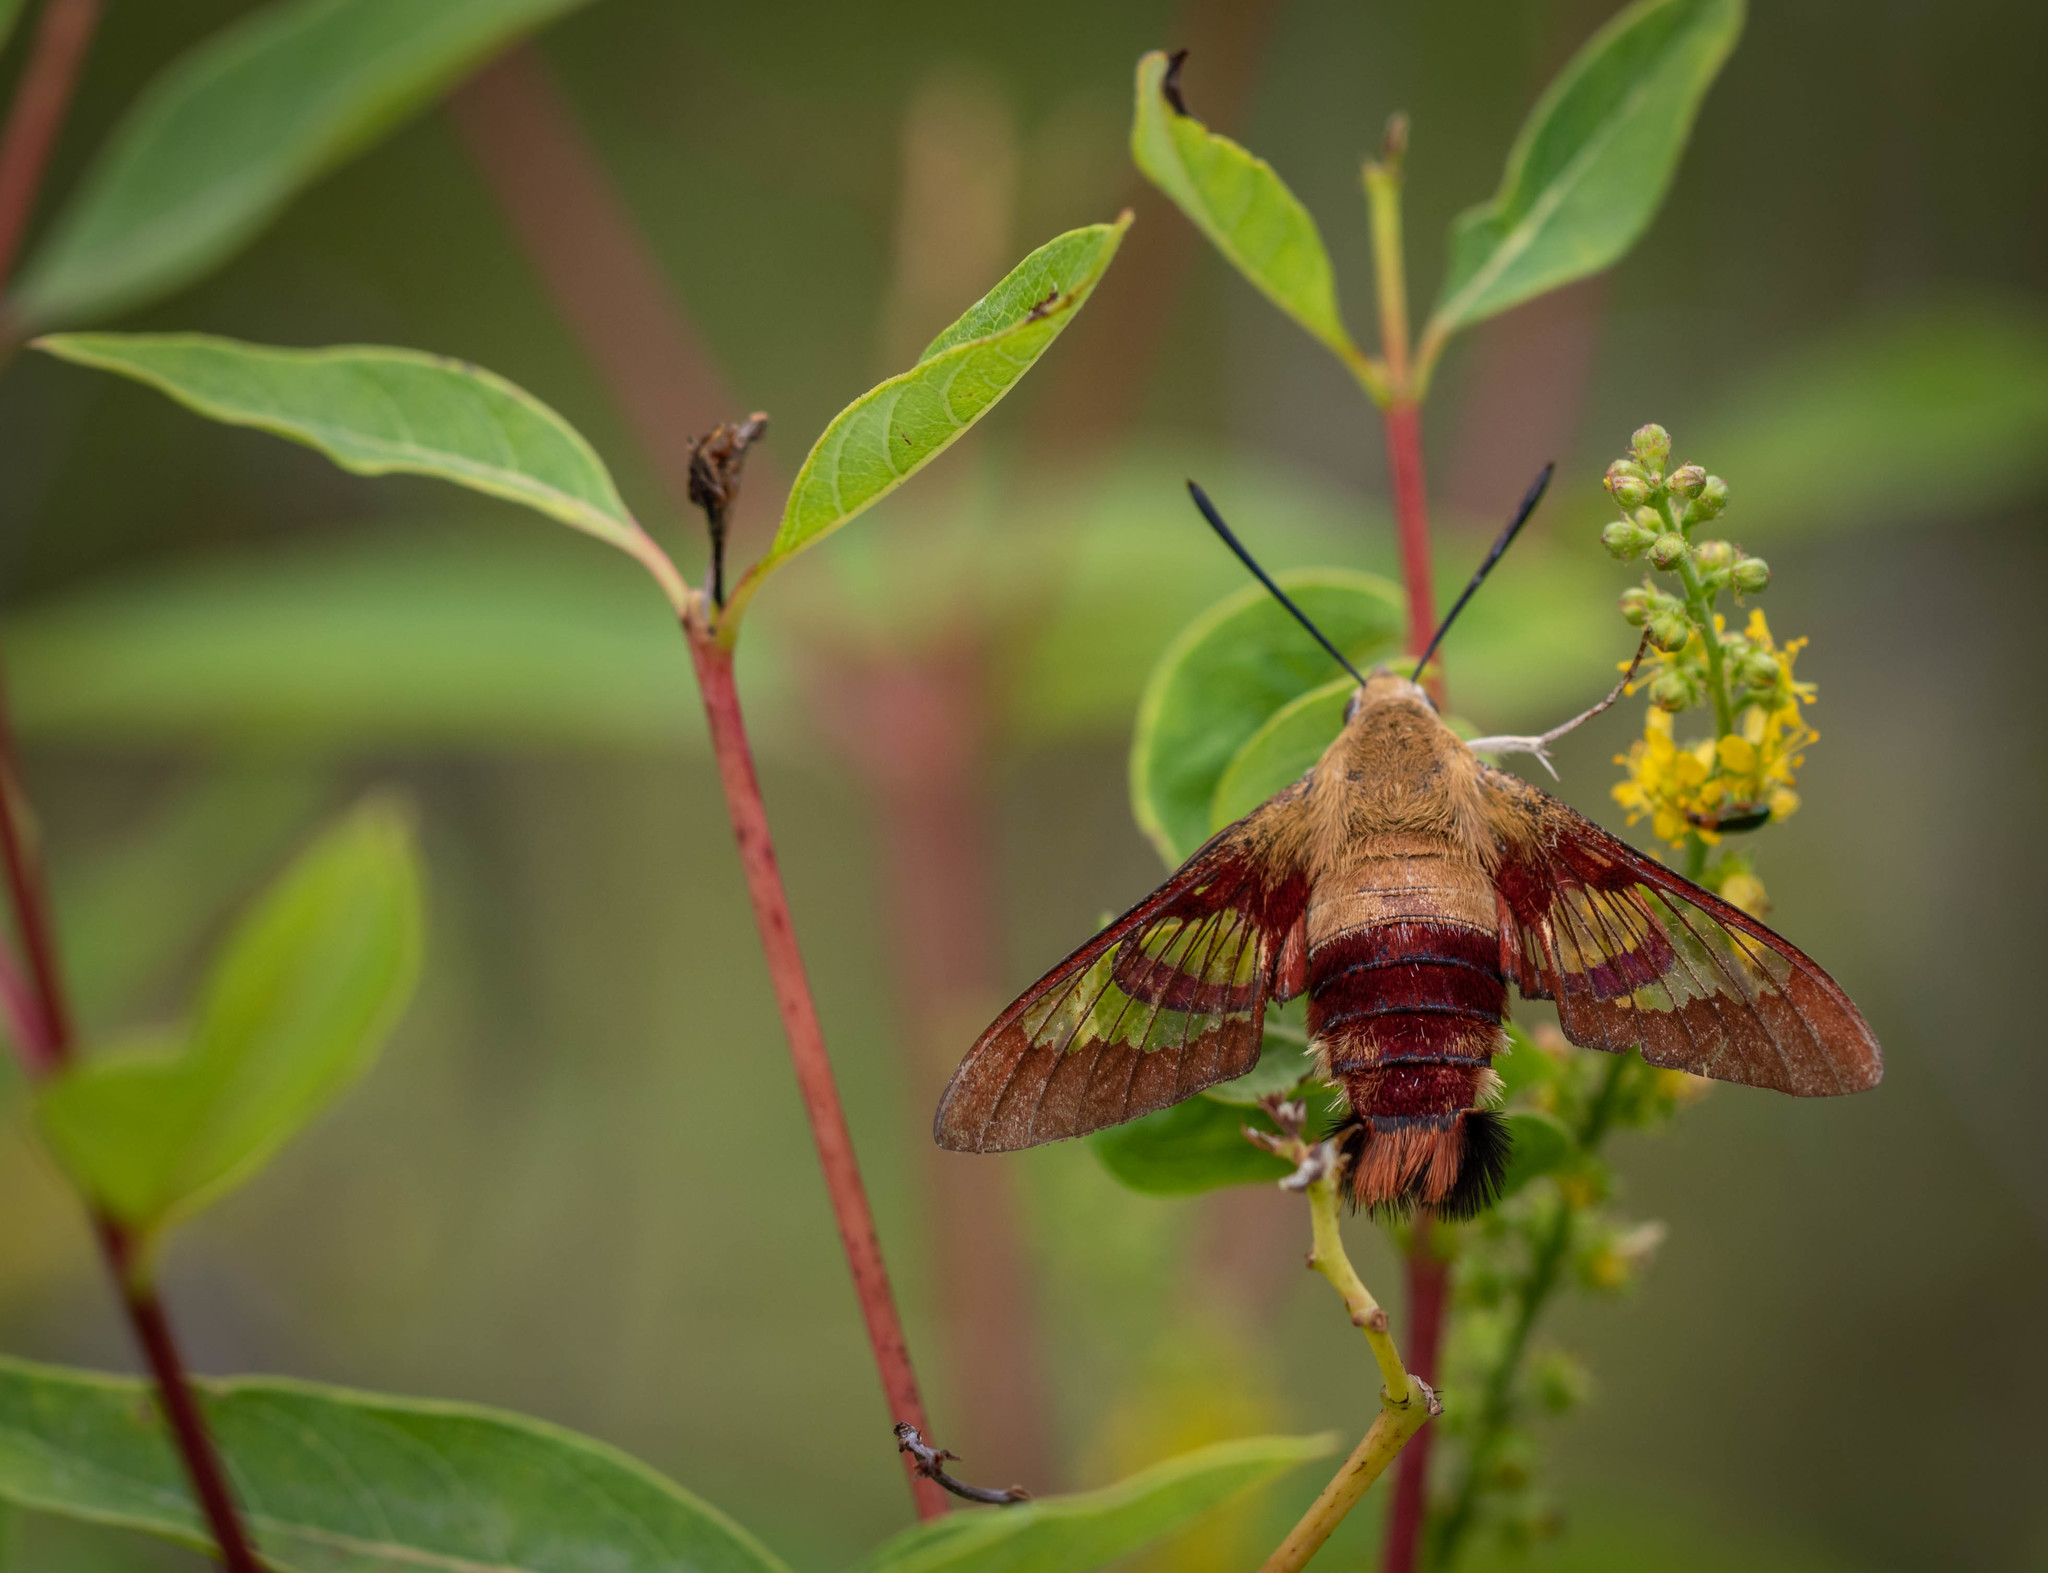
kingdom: Animalia
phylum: Arthropoda
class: Insecta
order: Lepidoptera
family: Sphingidae
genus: Hemaris
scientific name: Hemaris thysbe
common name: Common clear-wing
